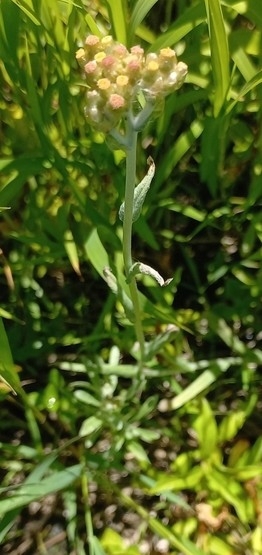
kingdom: Plantae
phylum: Tracheophyta
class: Magnoliopsida
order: Asterales
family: Asteraceae
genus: Helichrysum
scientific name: Helichrysum luteoalbum
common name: Daisy
